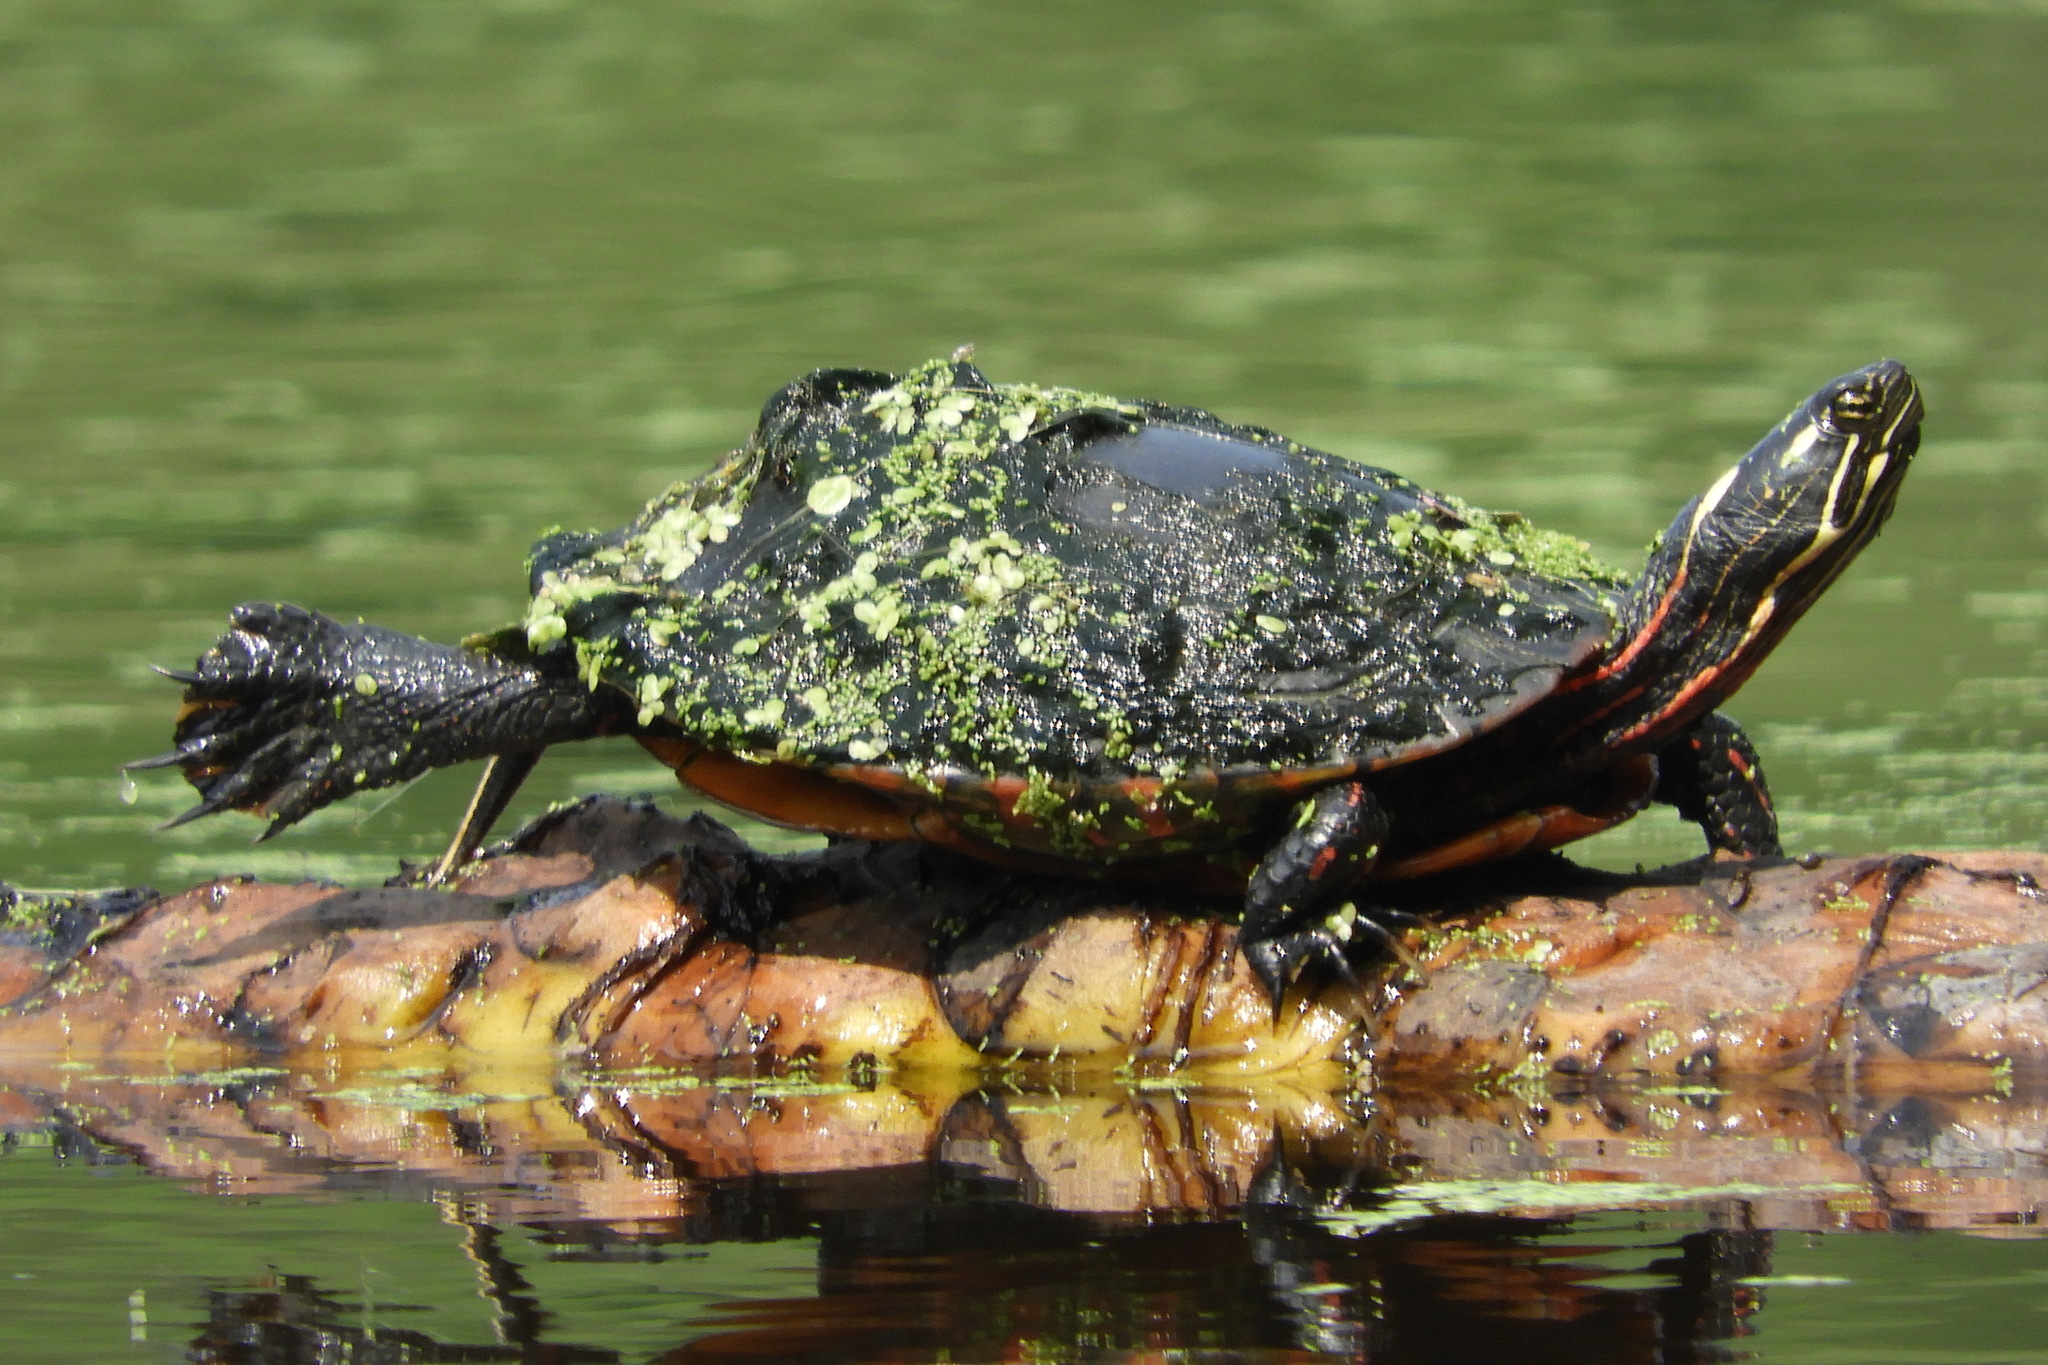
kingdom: Animalia
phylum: Chordata
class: Testudines
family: Emydidae
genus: Chrysemys
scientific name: Chrysemys picta
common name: Painted turtle
